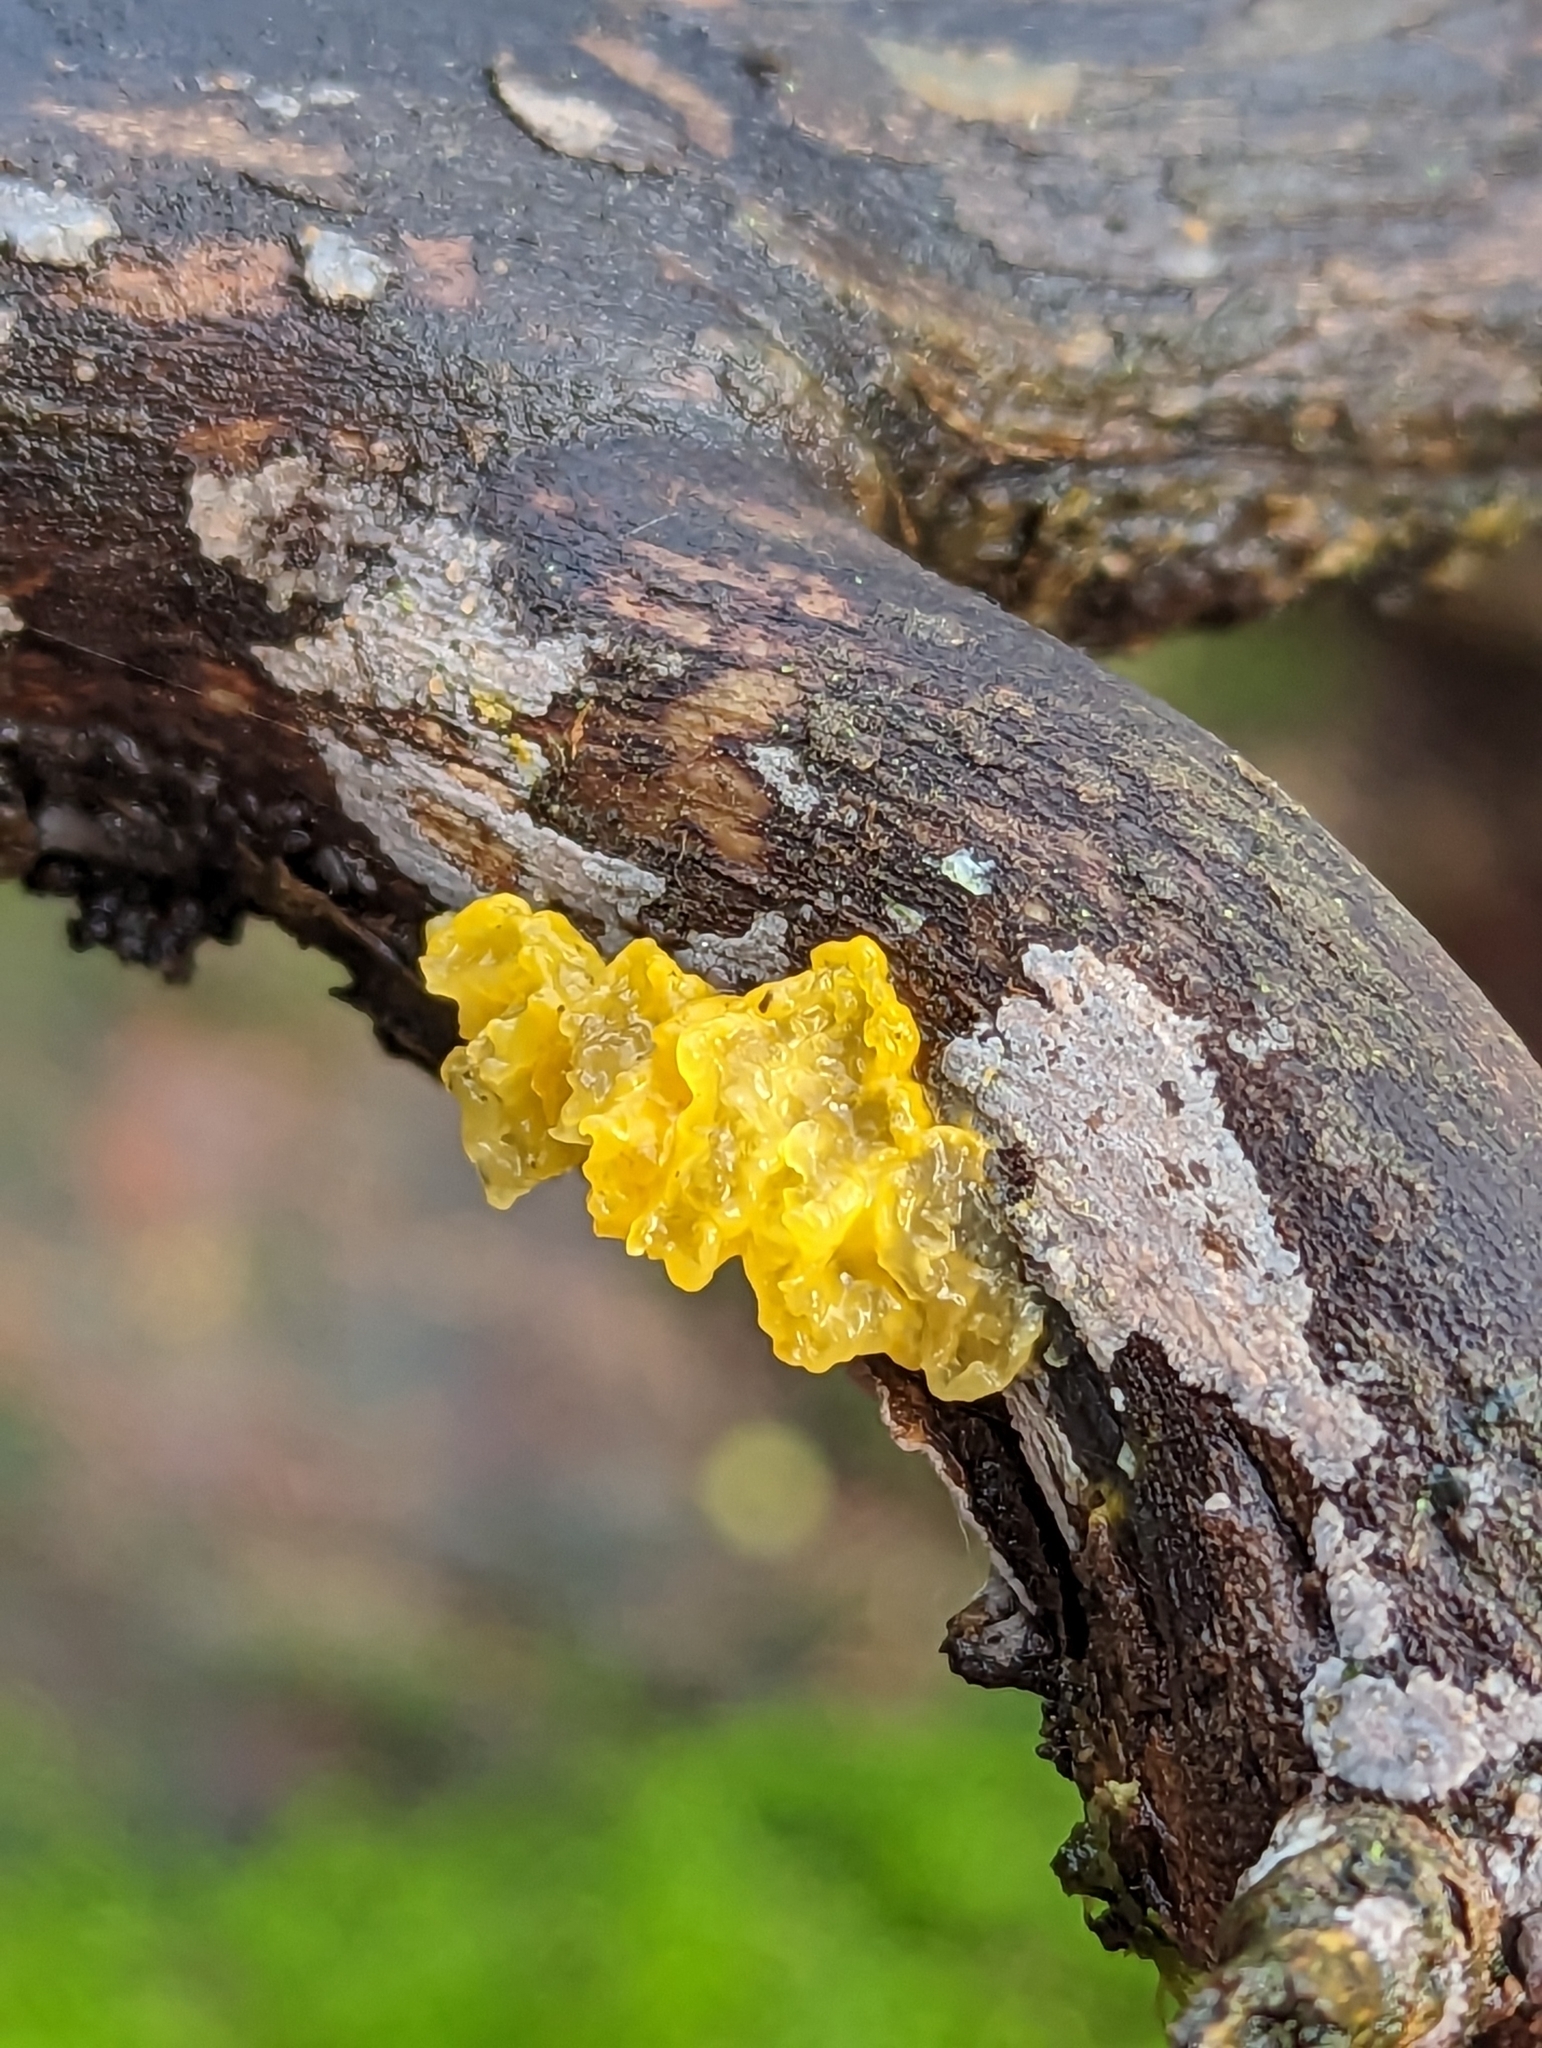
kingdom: Fungi
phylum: Basidiomycota
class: Tremellomycetes
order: Tremellales
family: Tremellaceae
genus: Tremella
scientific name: Tremella mesenterica
